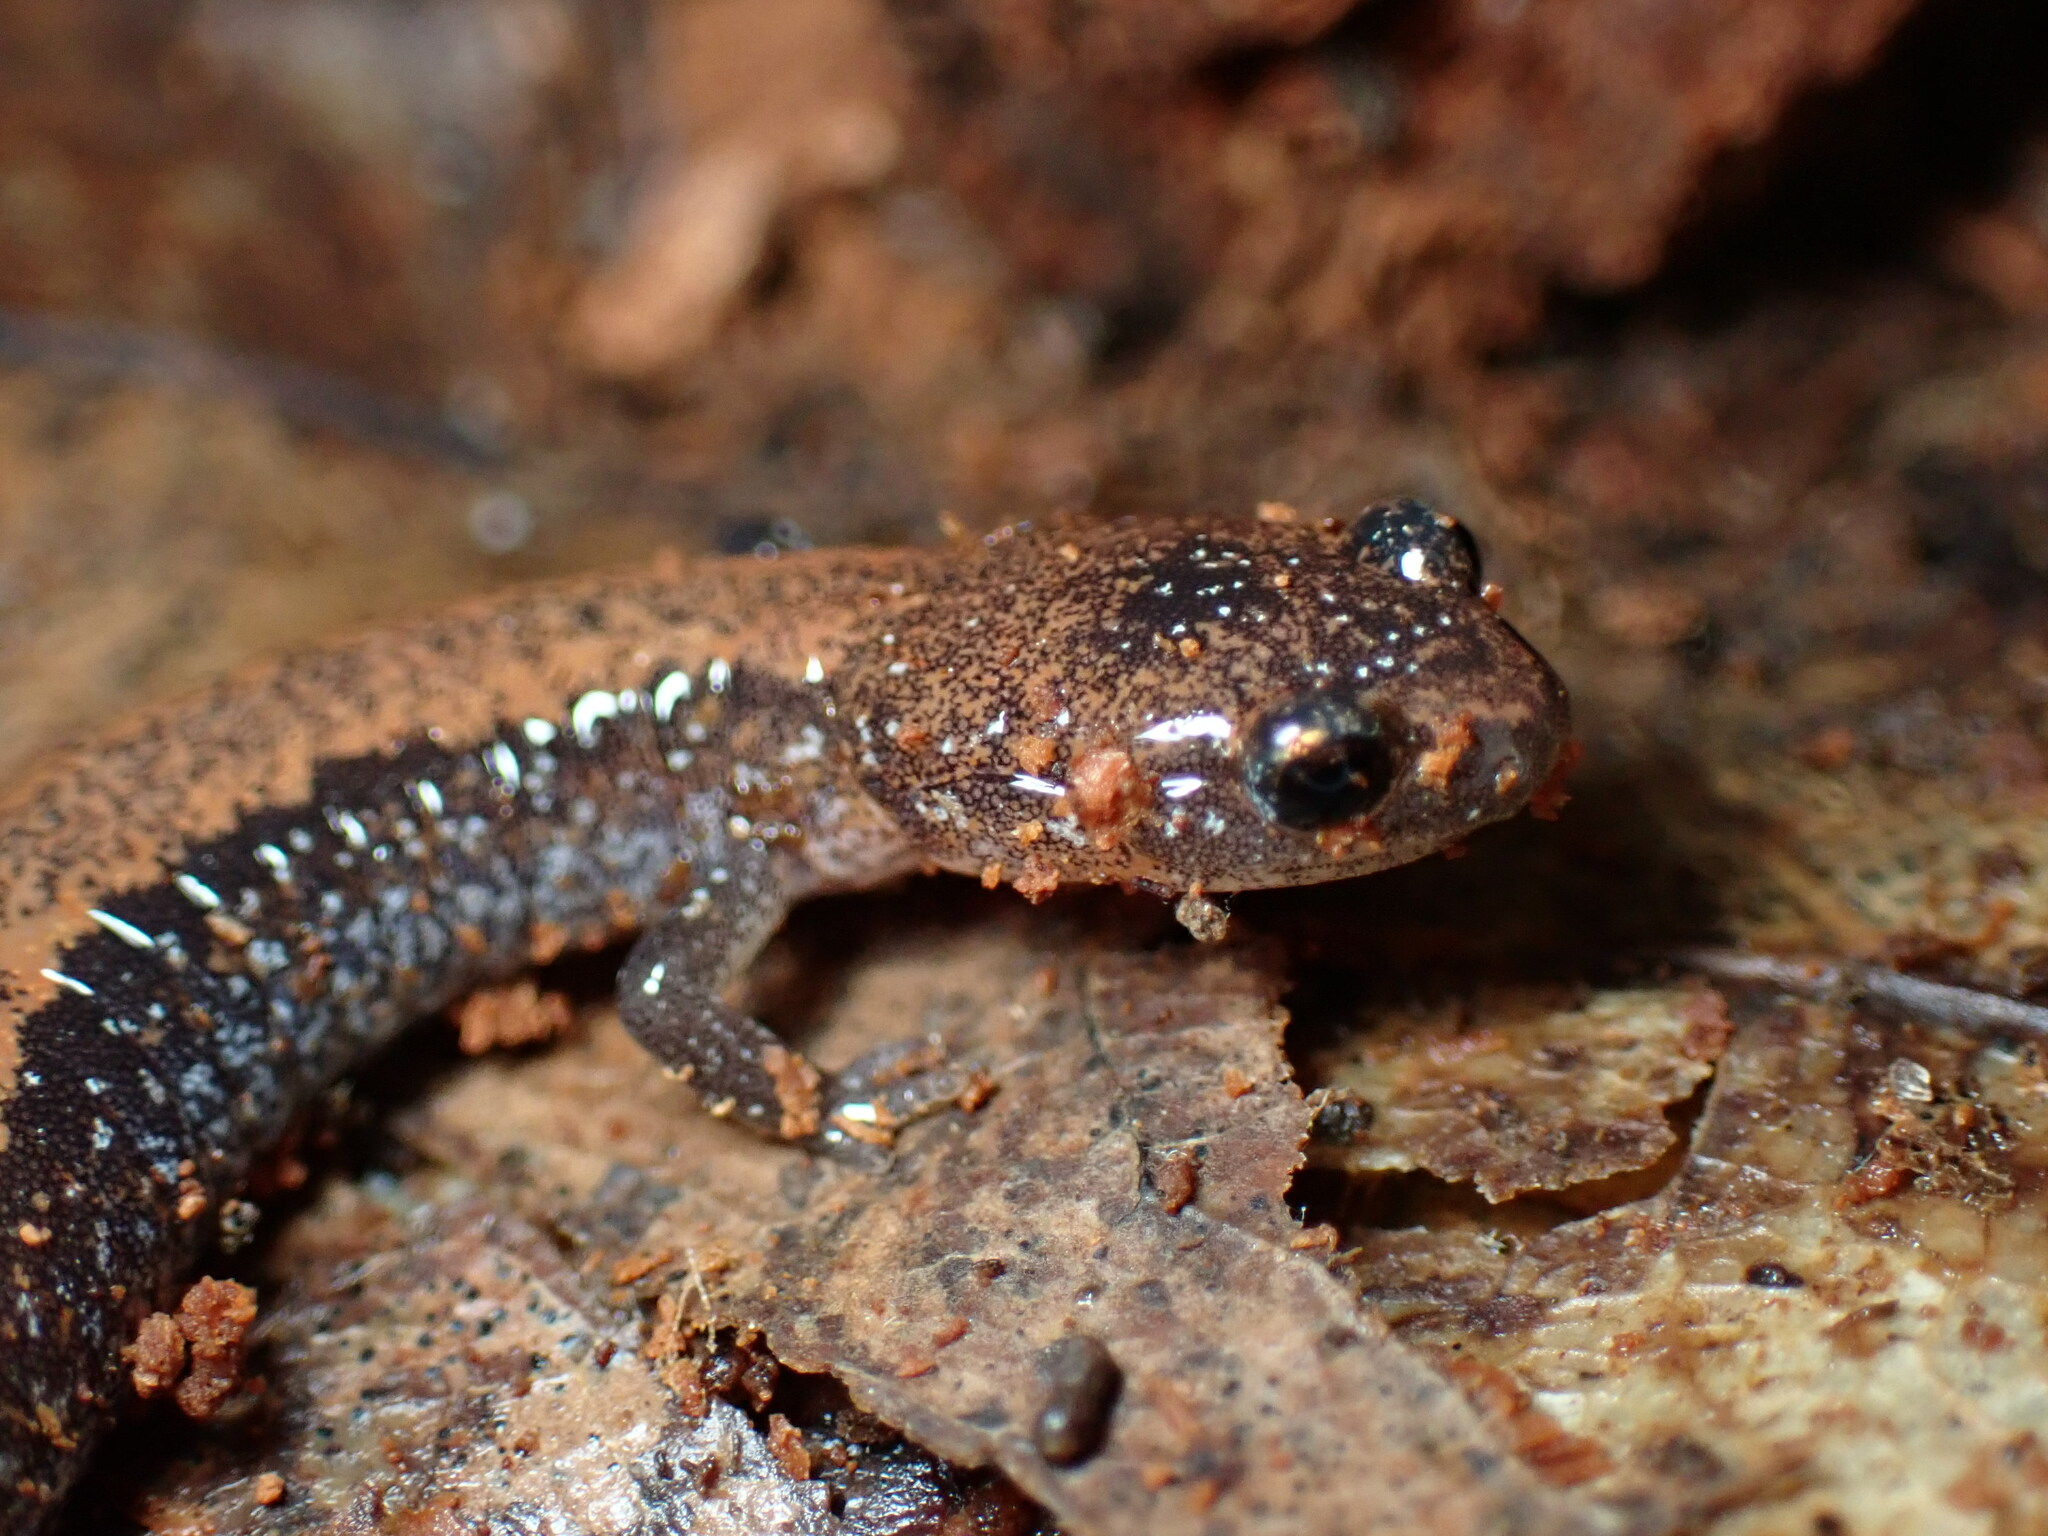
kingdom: Animalia
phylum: Chordata
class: Amphibia
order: Caudata
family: Plethodontidae
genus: Plethodon
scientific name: Plethodon cinereus
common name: Redback salamander
